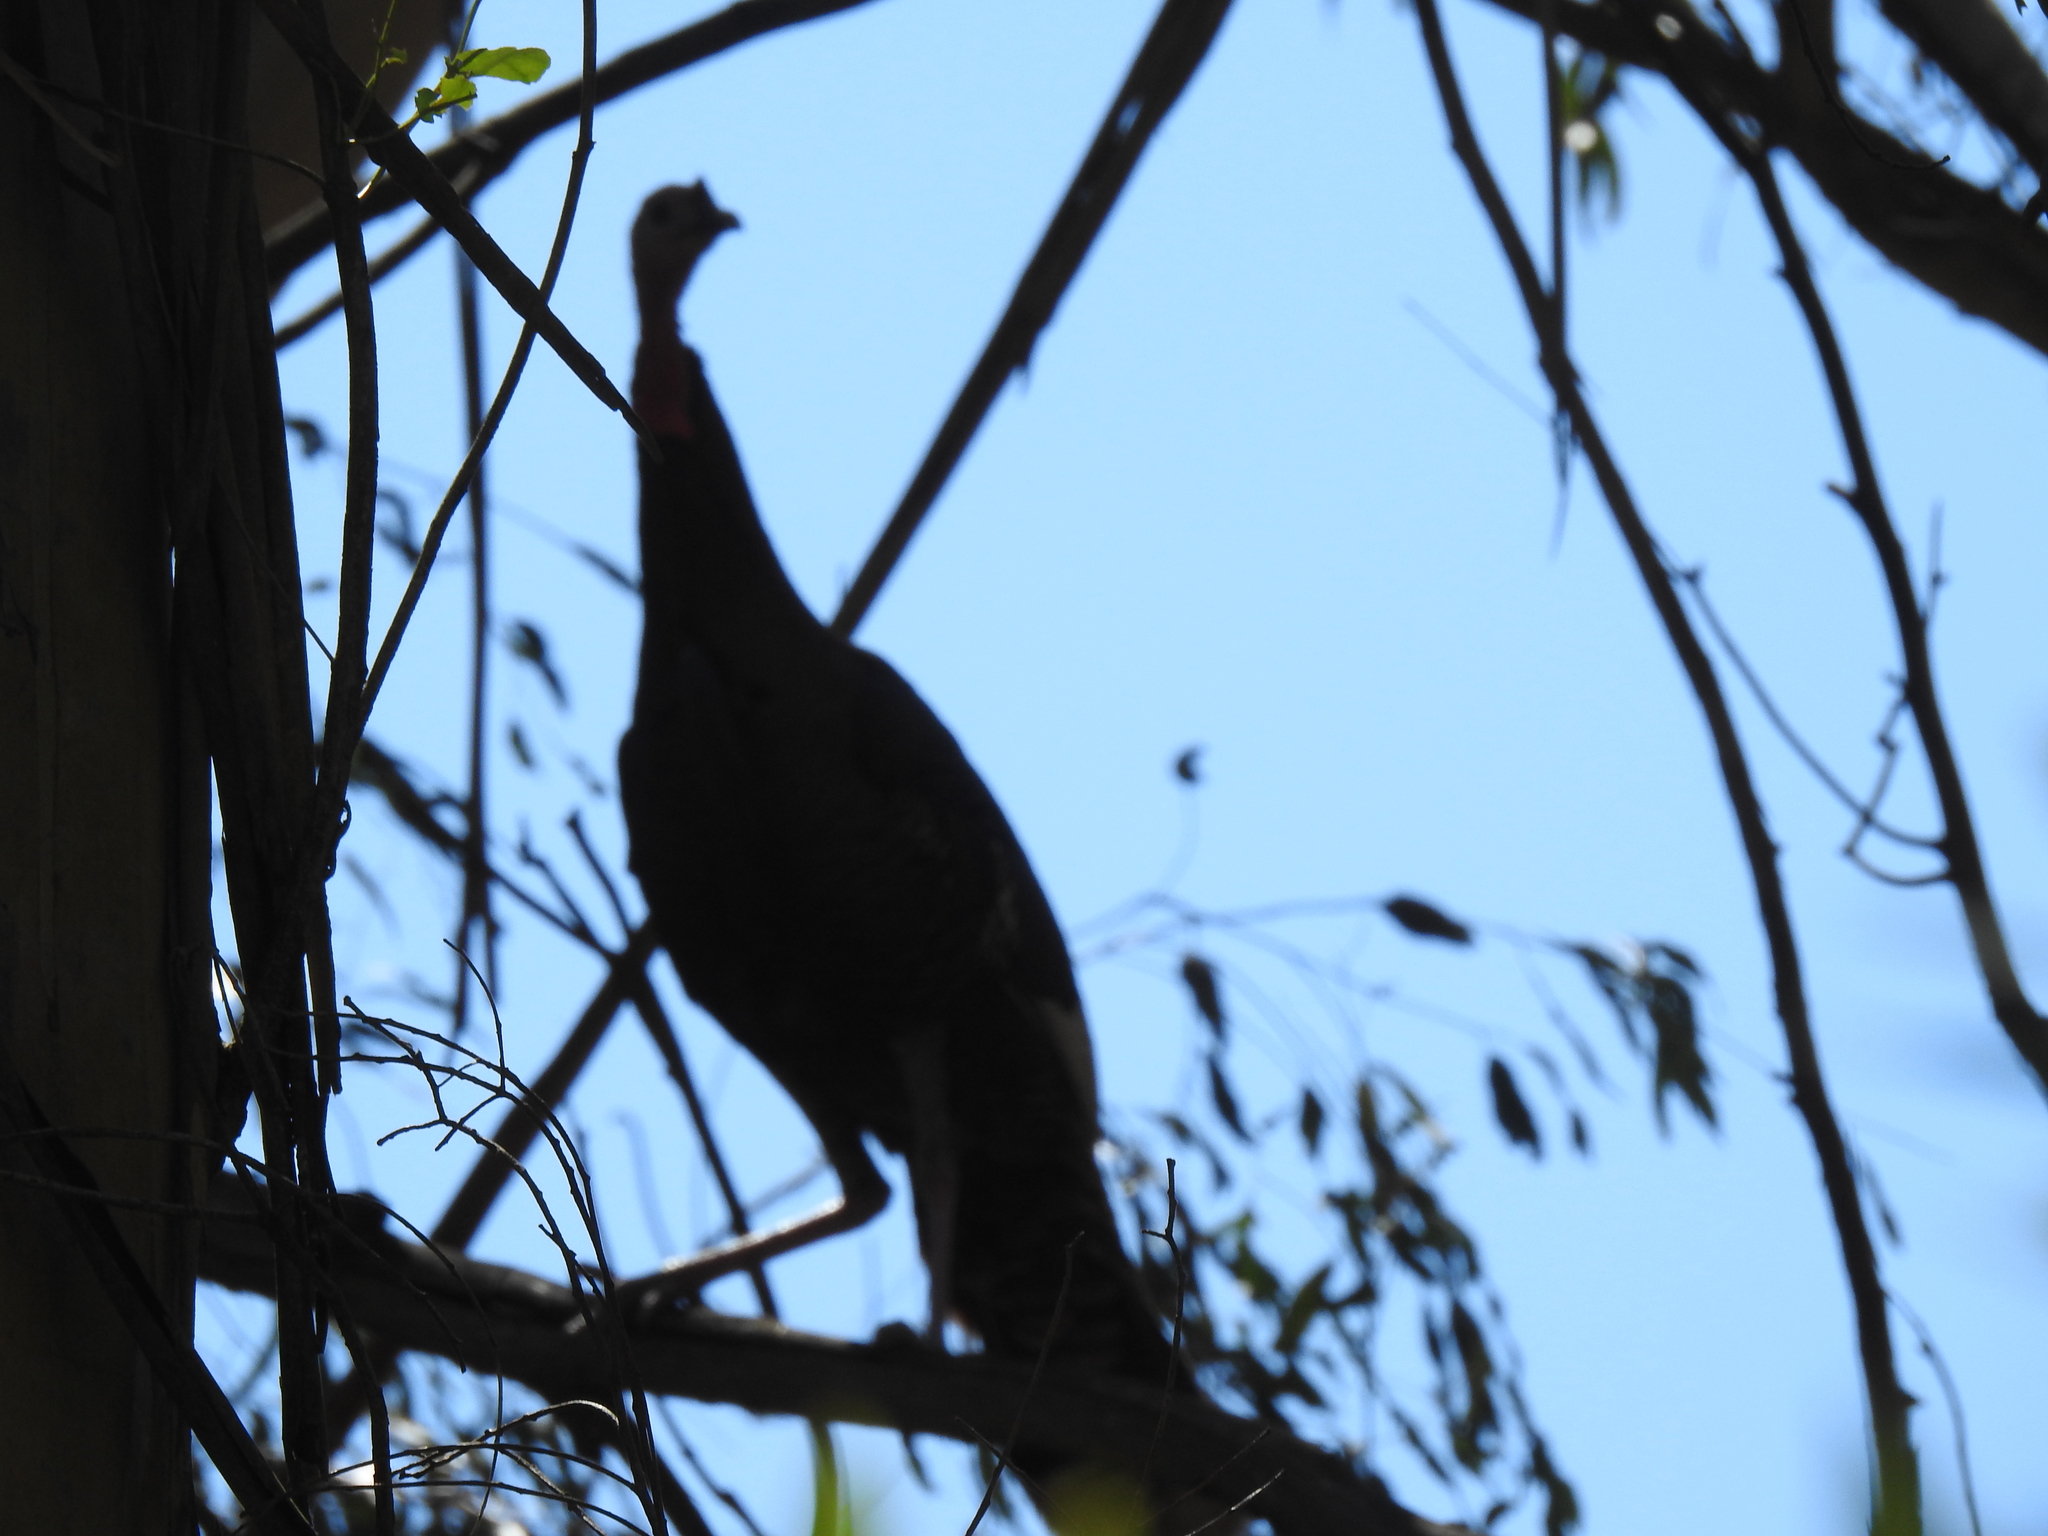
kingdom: Animalia
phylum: Chordata
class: Aves
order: Galliformes
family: Phasianidae
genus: Meleagris
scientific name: Meleagris gallopavo
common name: Wild turkey
